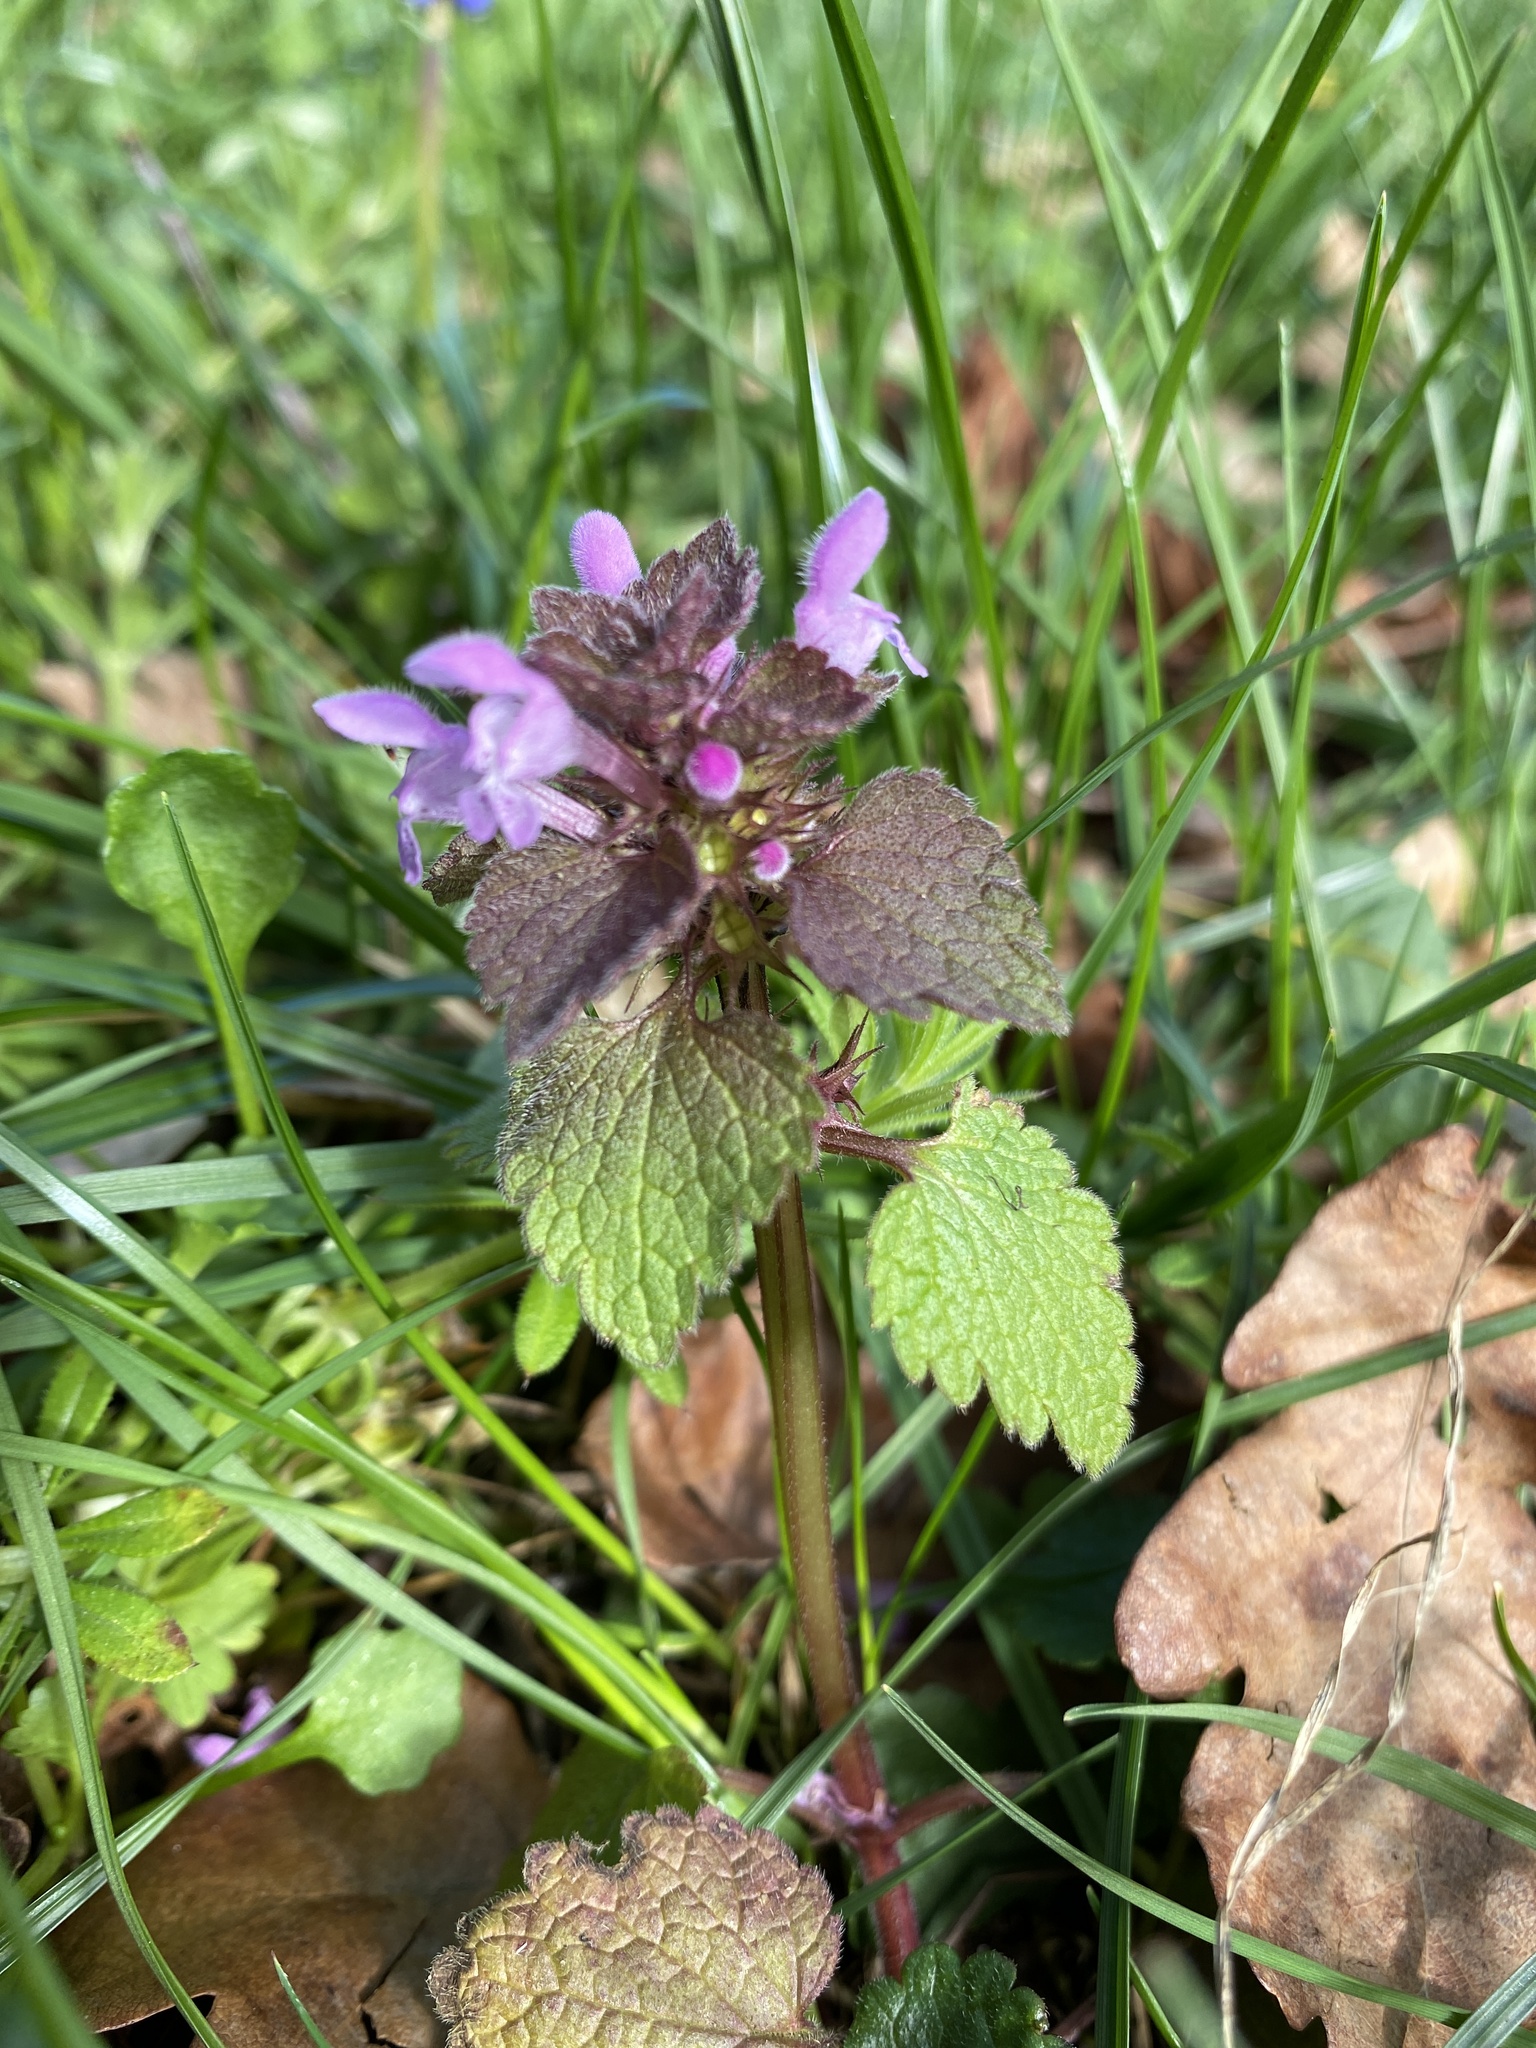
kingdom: Plantae
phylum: Tracheophyta
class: Magnoliopsida
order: Lamiales
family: Lamiaceae
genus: Lamium
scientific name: Lamium purpureum
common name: Red dead-nettle
